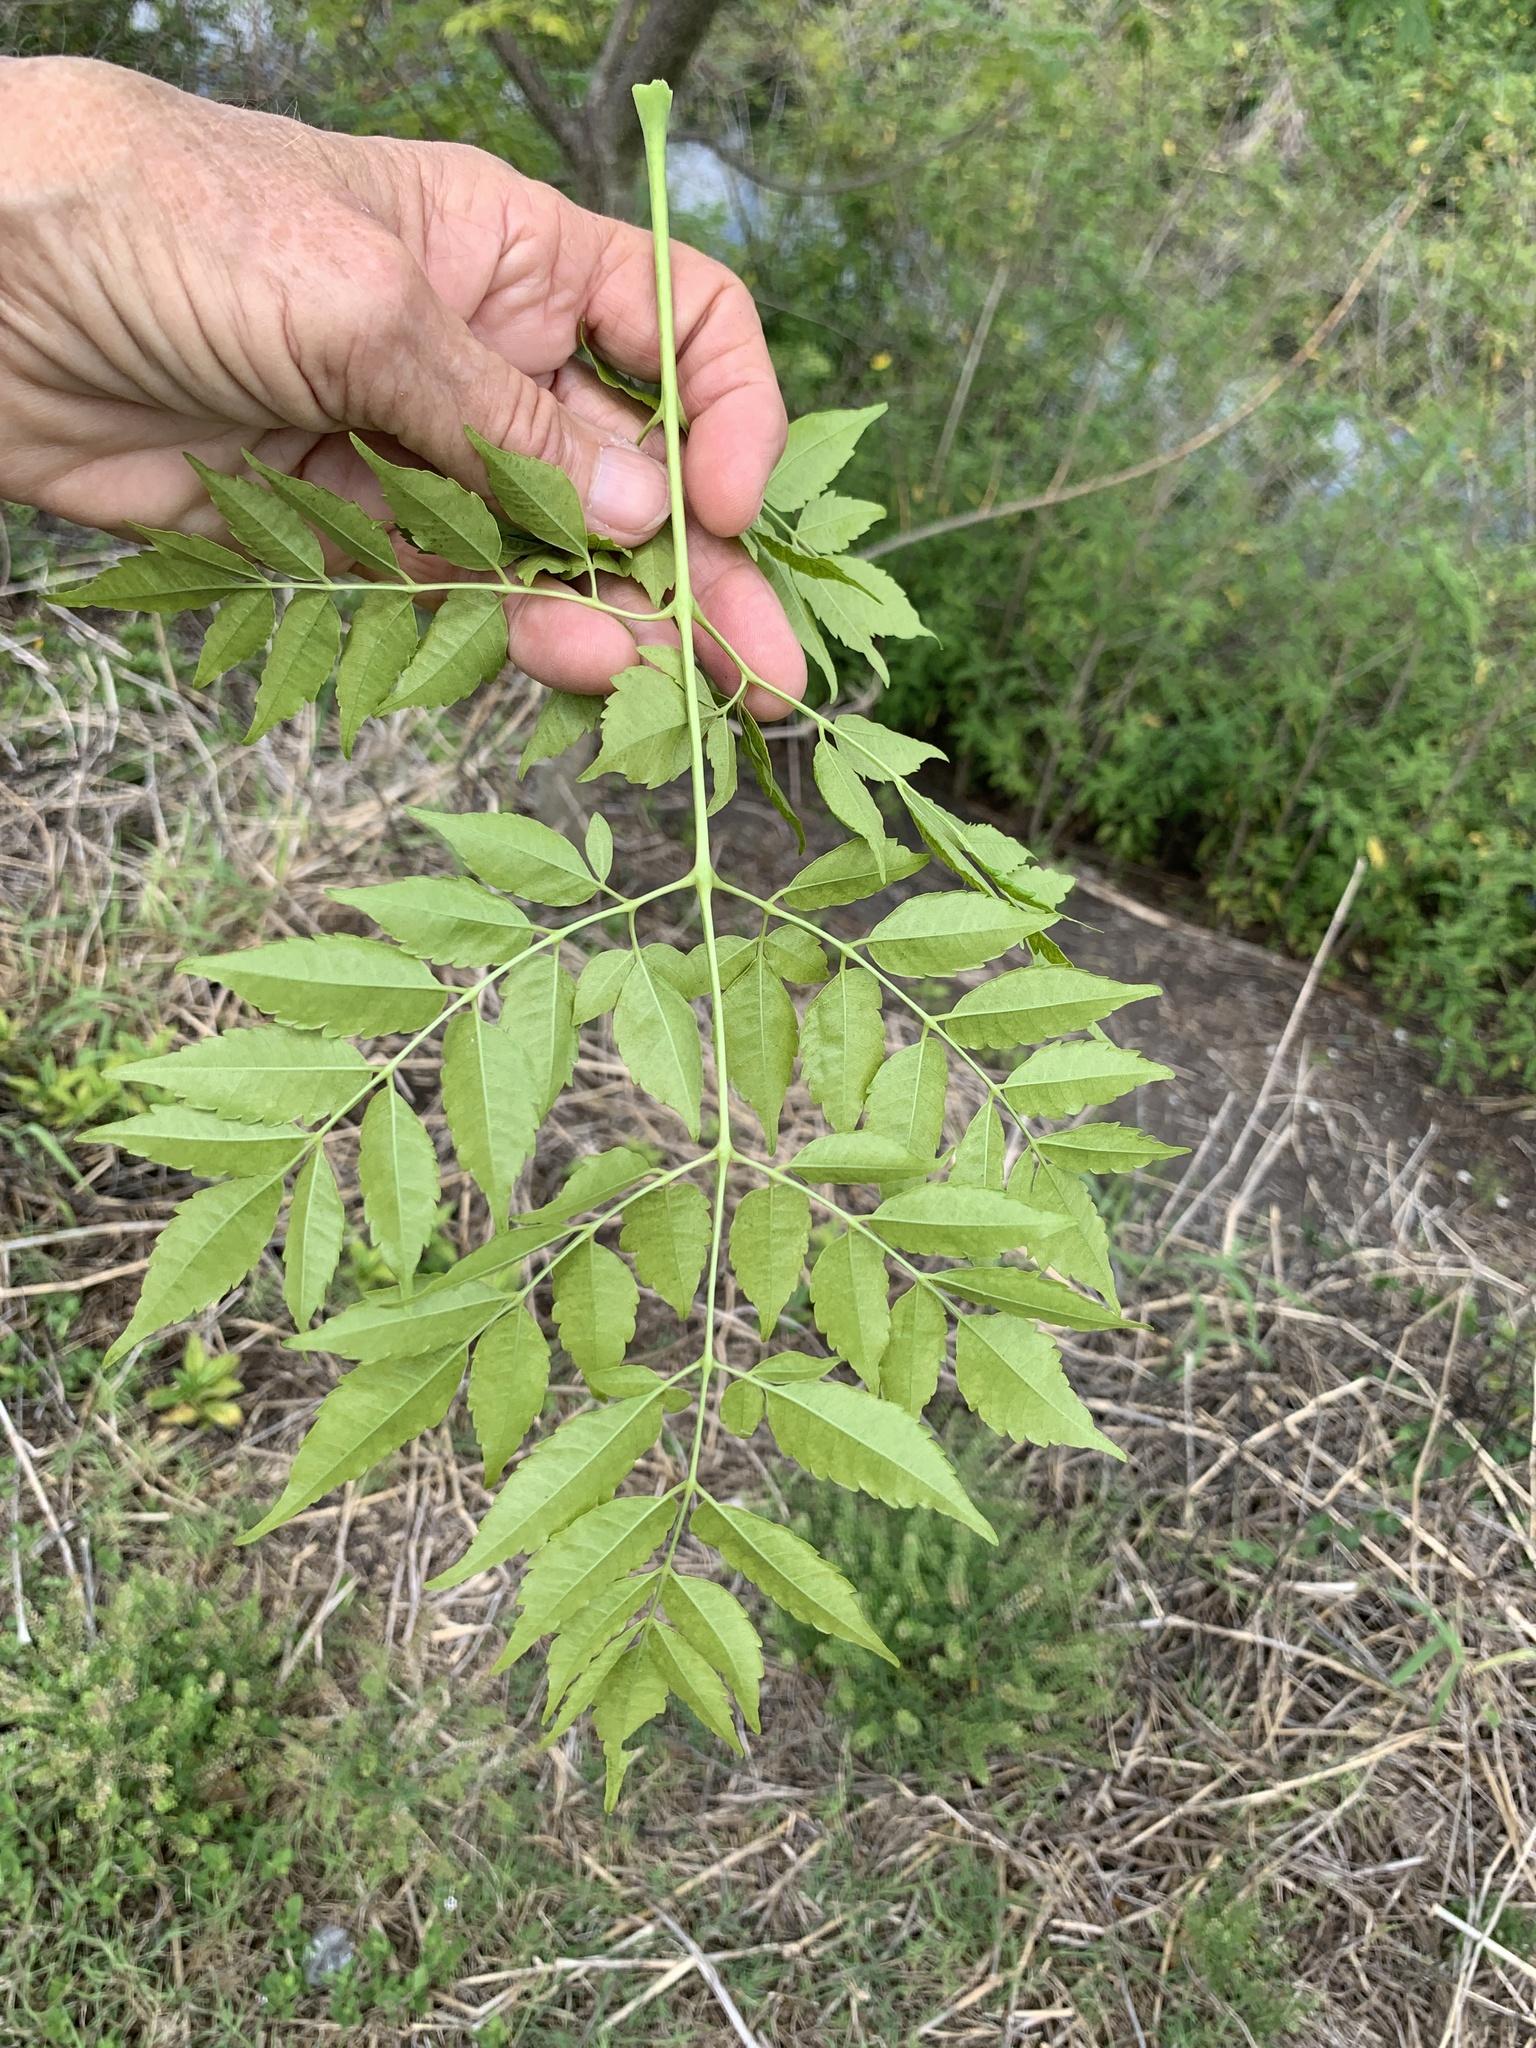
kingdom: Plantae
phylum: Tracheophyta
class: Magnoliopsida
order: Sapindales
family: Meliaceae
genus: Melia
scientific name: Melia azedarach
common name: Chinaberrytree
